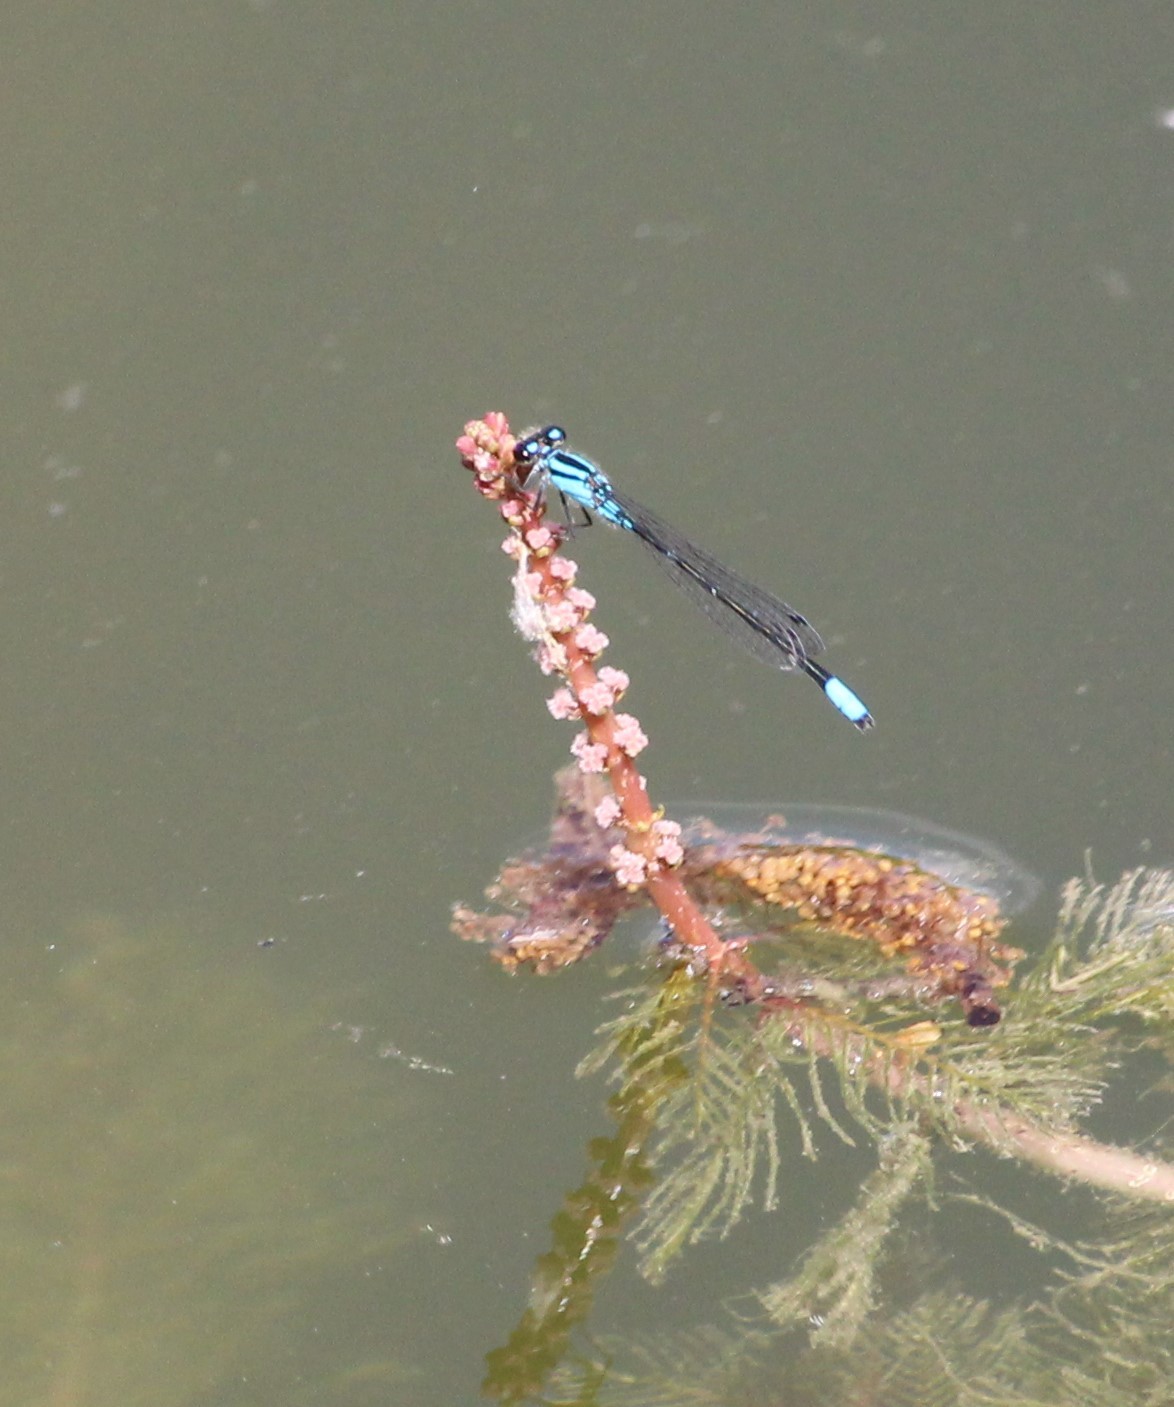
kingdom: Animalia
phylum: Arthropoda
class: Insecta
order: Odonata
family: Coenagrionidae
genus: Enallagma
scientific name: Enallagma geminatum
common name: Skimming bluet
